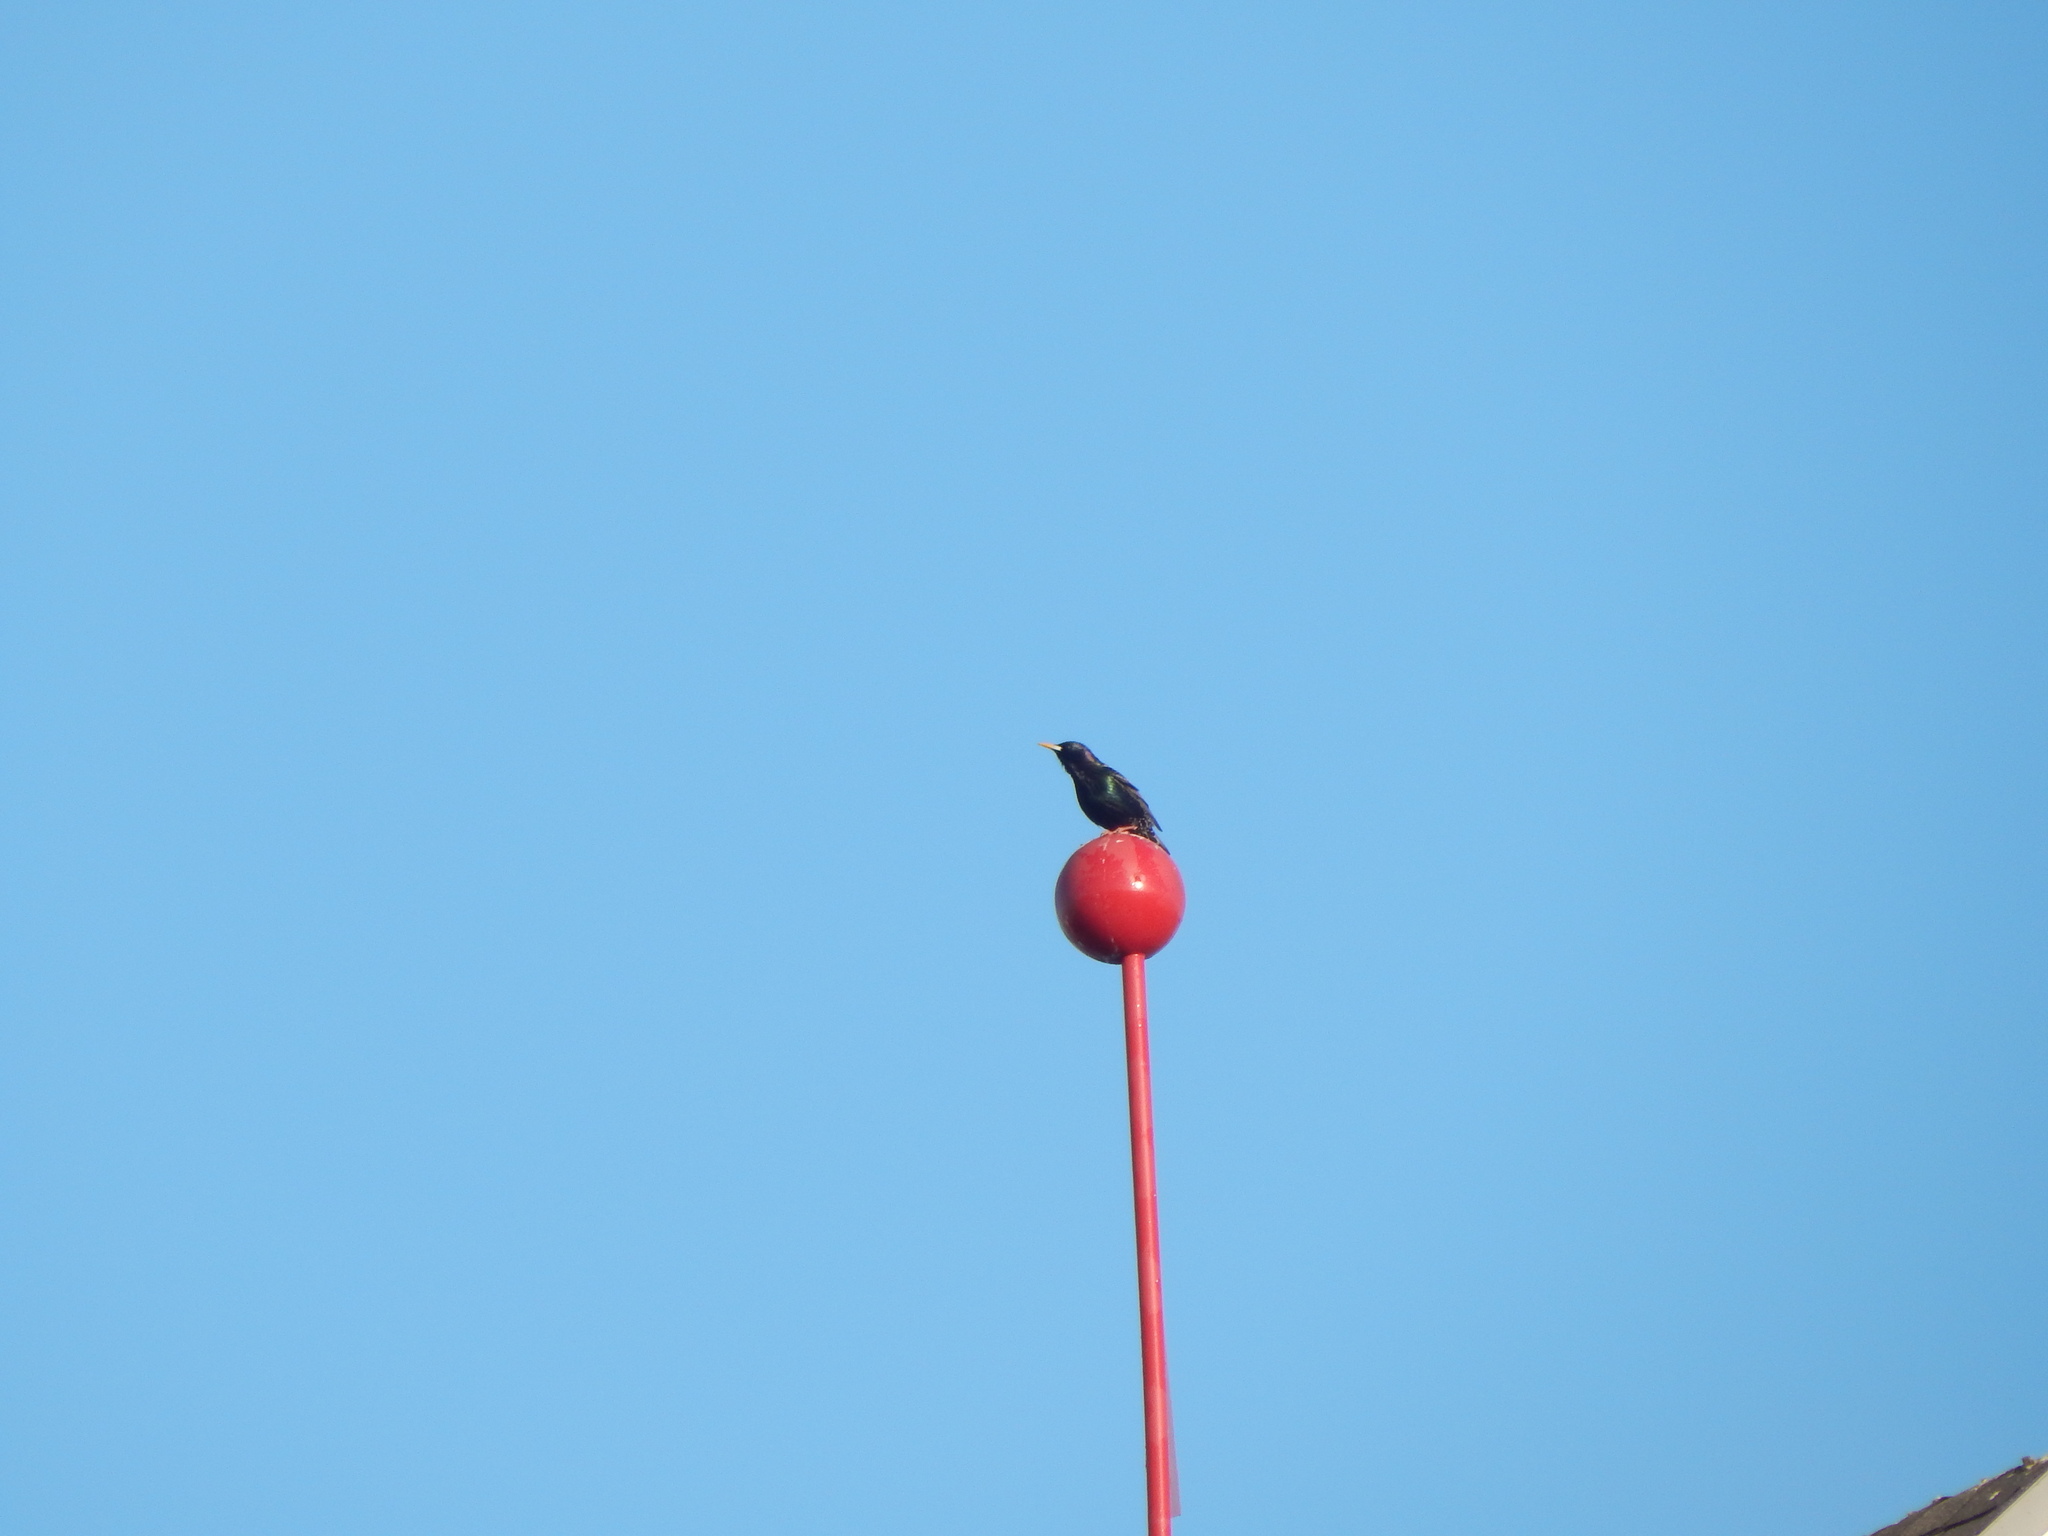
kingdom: Animalia
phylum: Chordata
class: Aves
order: Passeriformes
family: Sturnidae
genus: Sturnus
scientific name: Sturnus vulgaris
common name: Common starling
